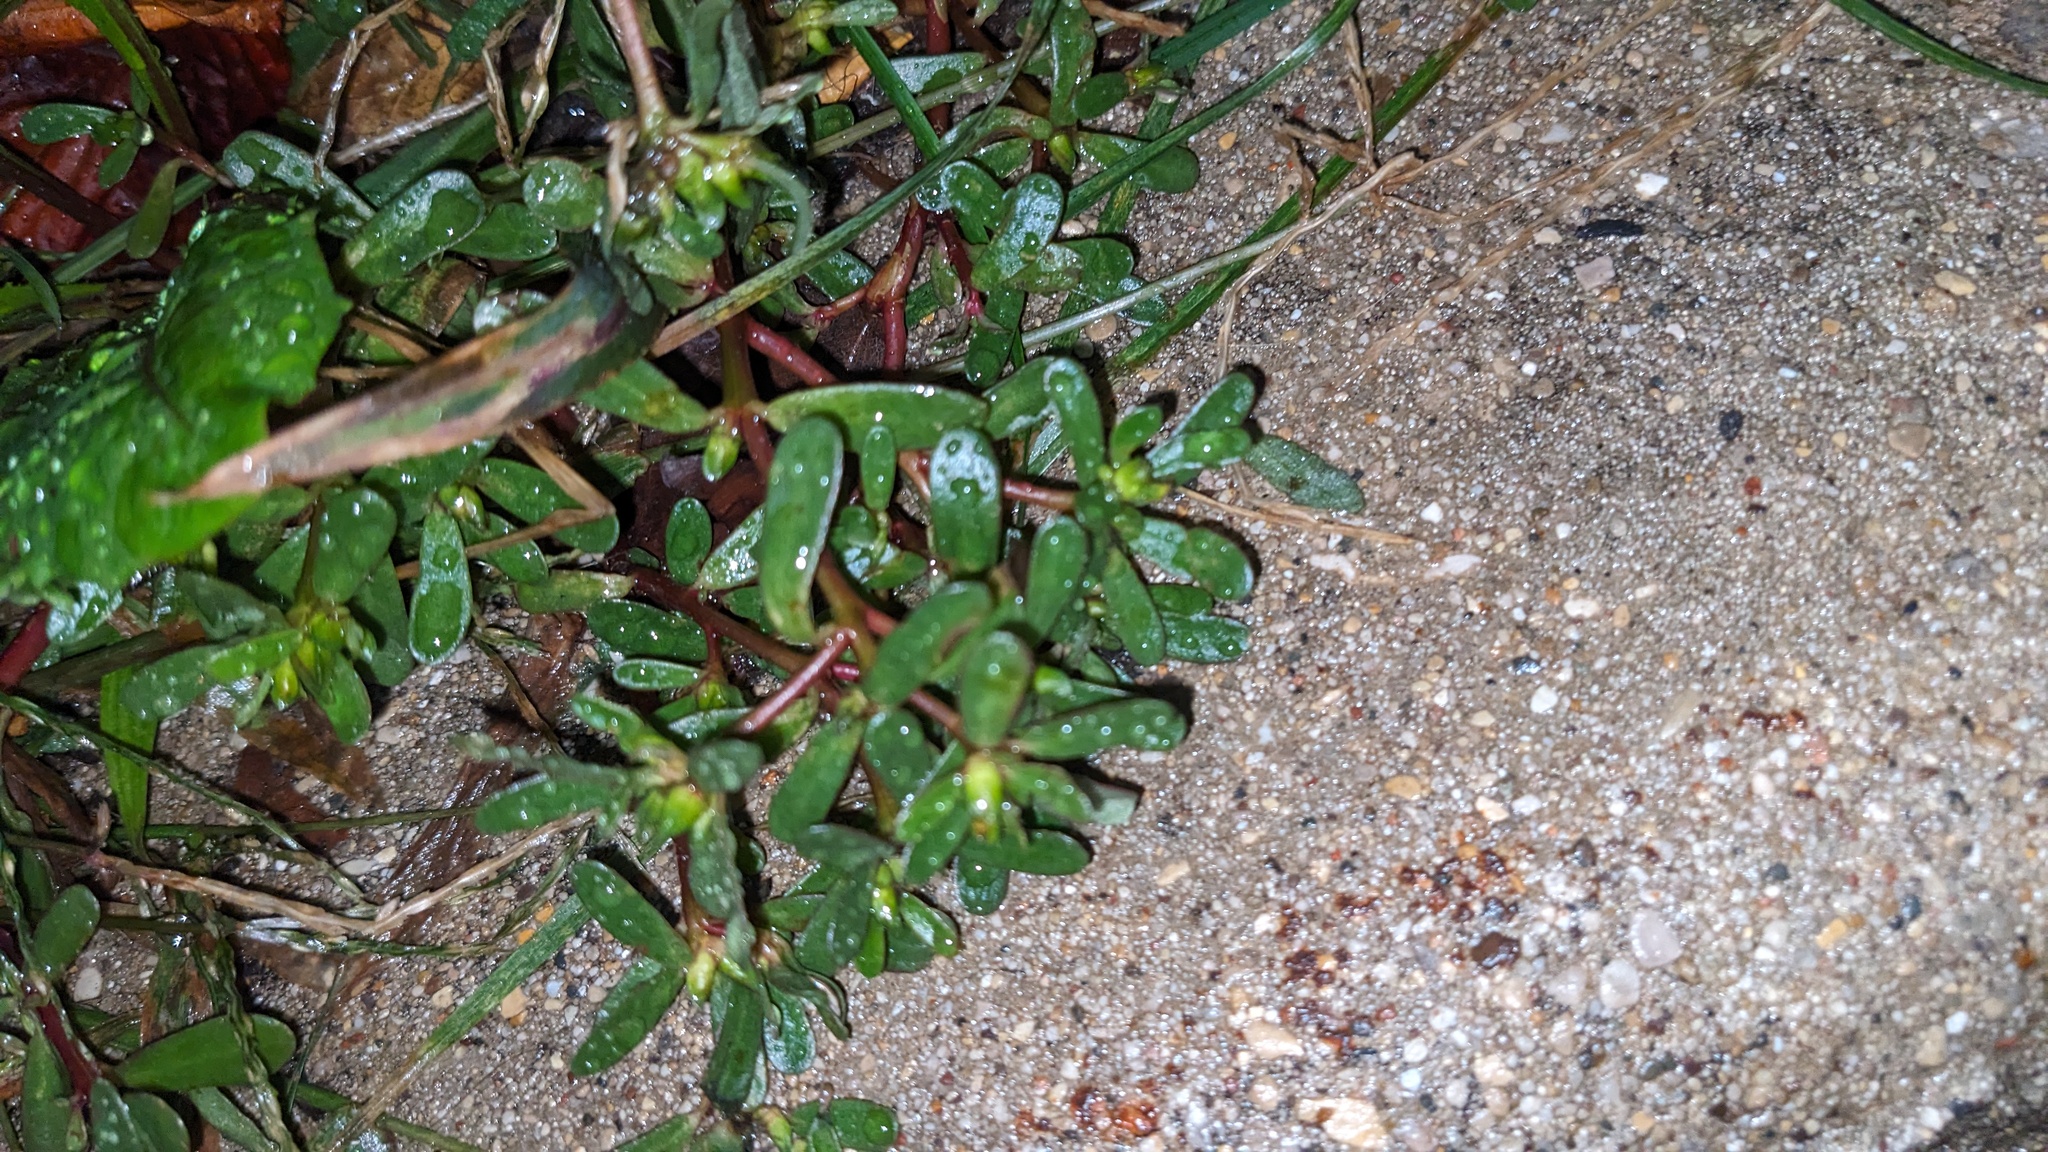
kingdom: Plantae
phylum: Tracheophyta
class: Magnoliopsida
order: Caryophyllales
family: Portulacaceae
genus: Portulaca
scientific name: Portulaca oleracea
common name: Common purslane
